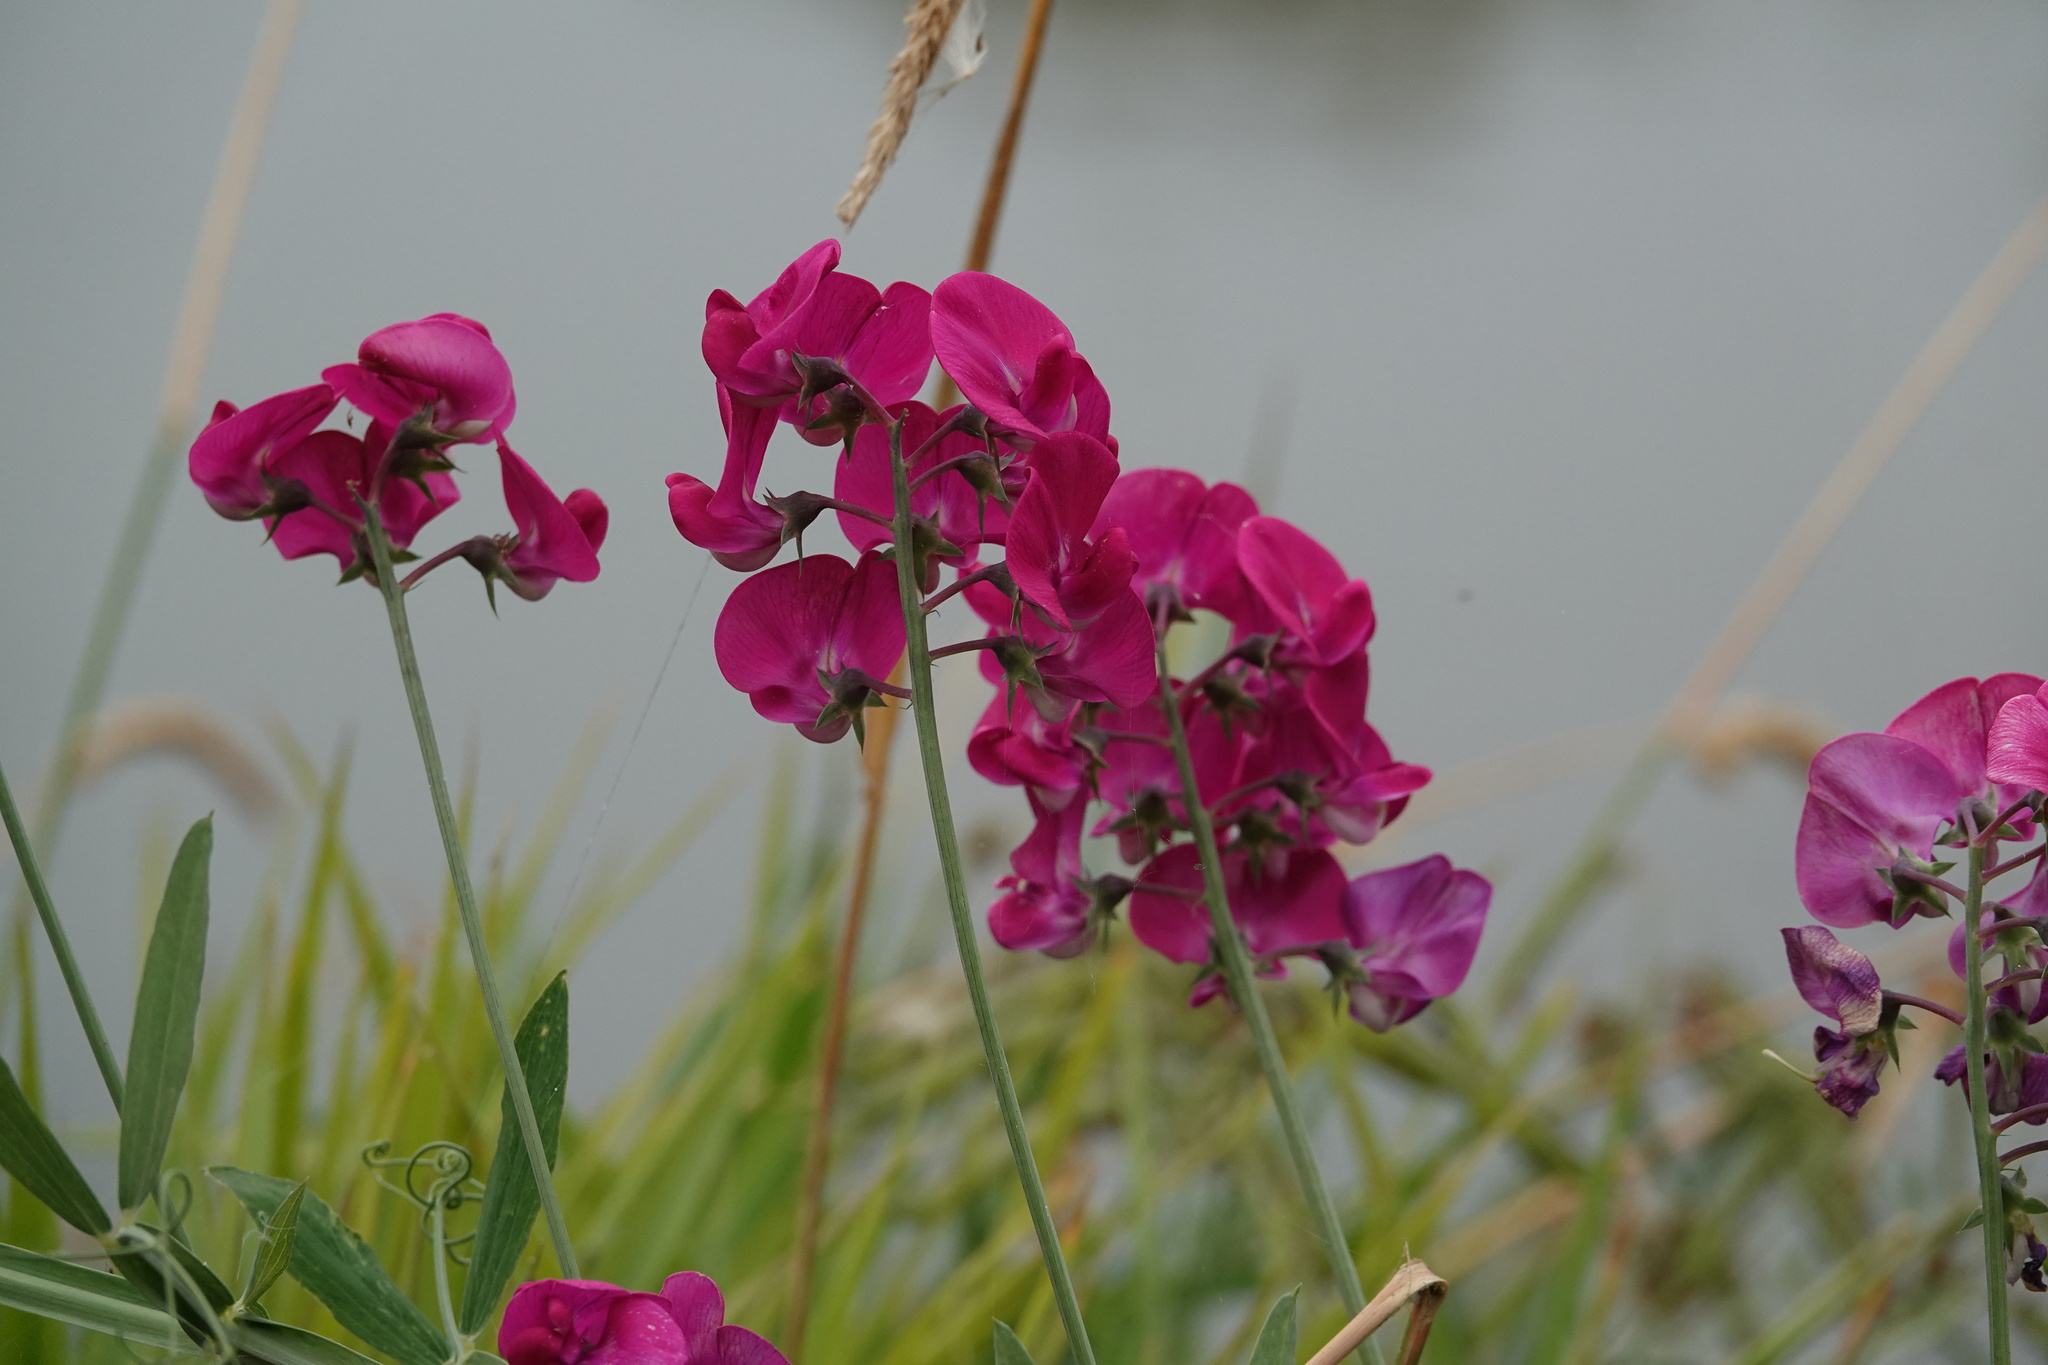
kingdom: Plantae
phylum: Tracheophyta
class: Magnoliopsida
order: Fabales
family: Fabaceae
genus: Lathyrus
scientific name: Lathyrus latifolius
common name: Perennial pea
